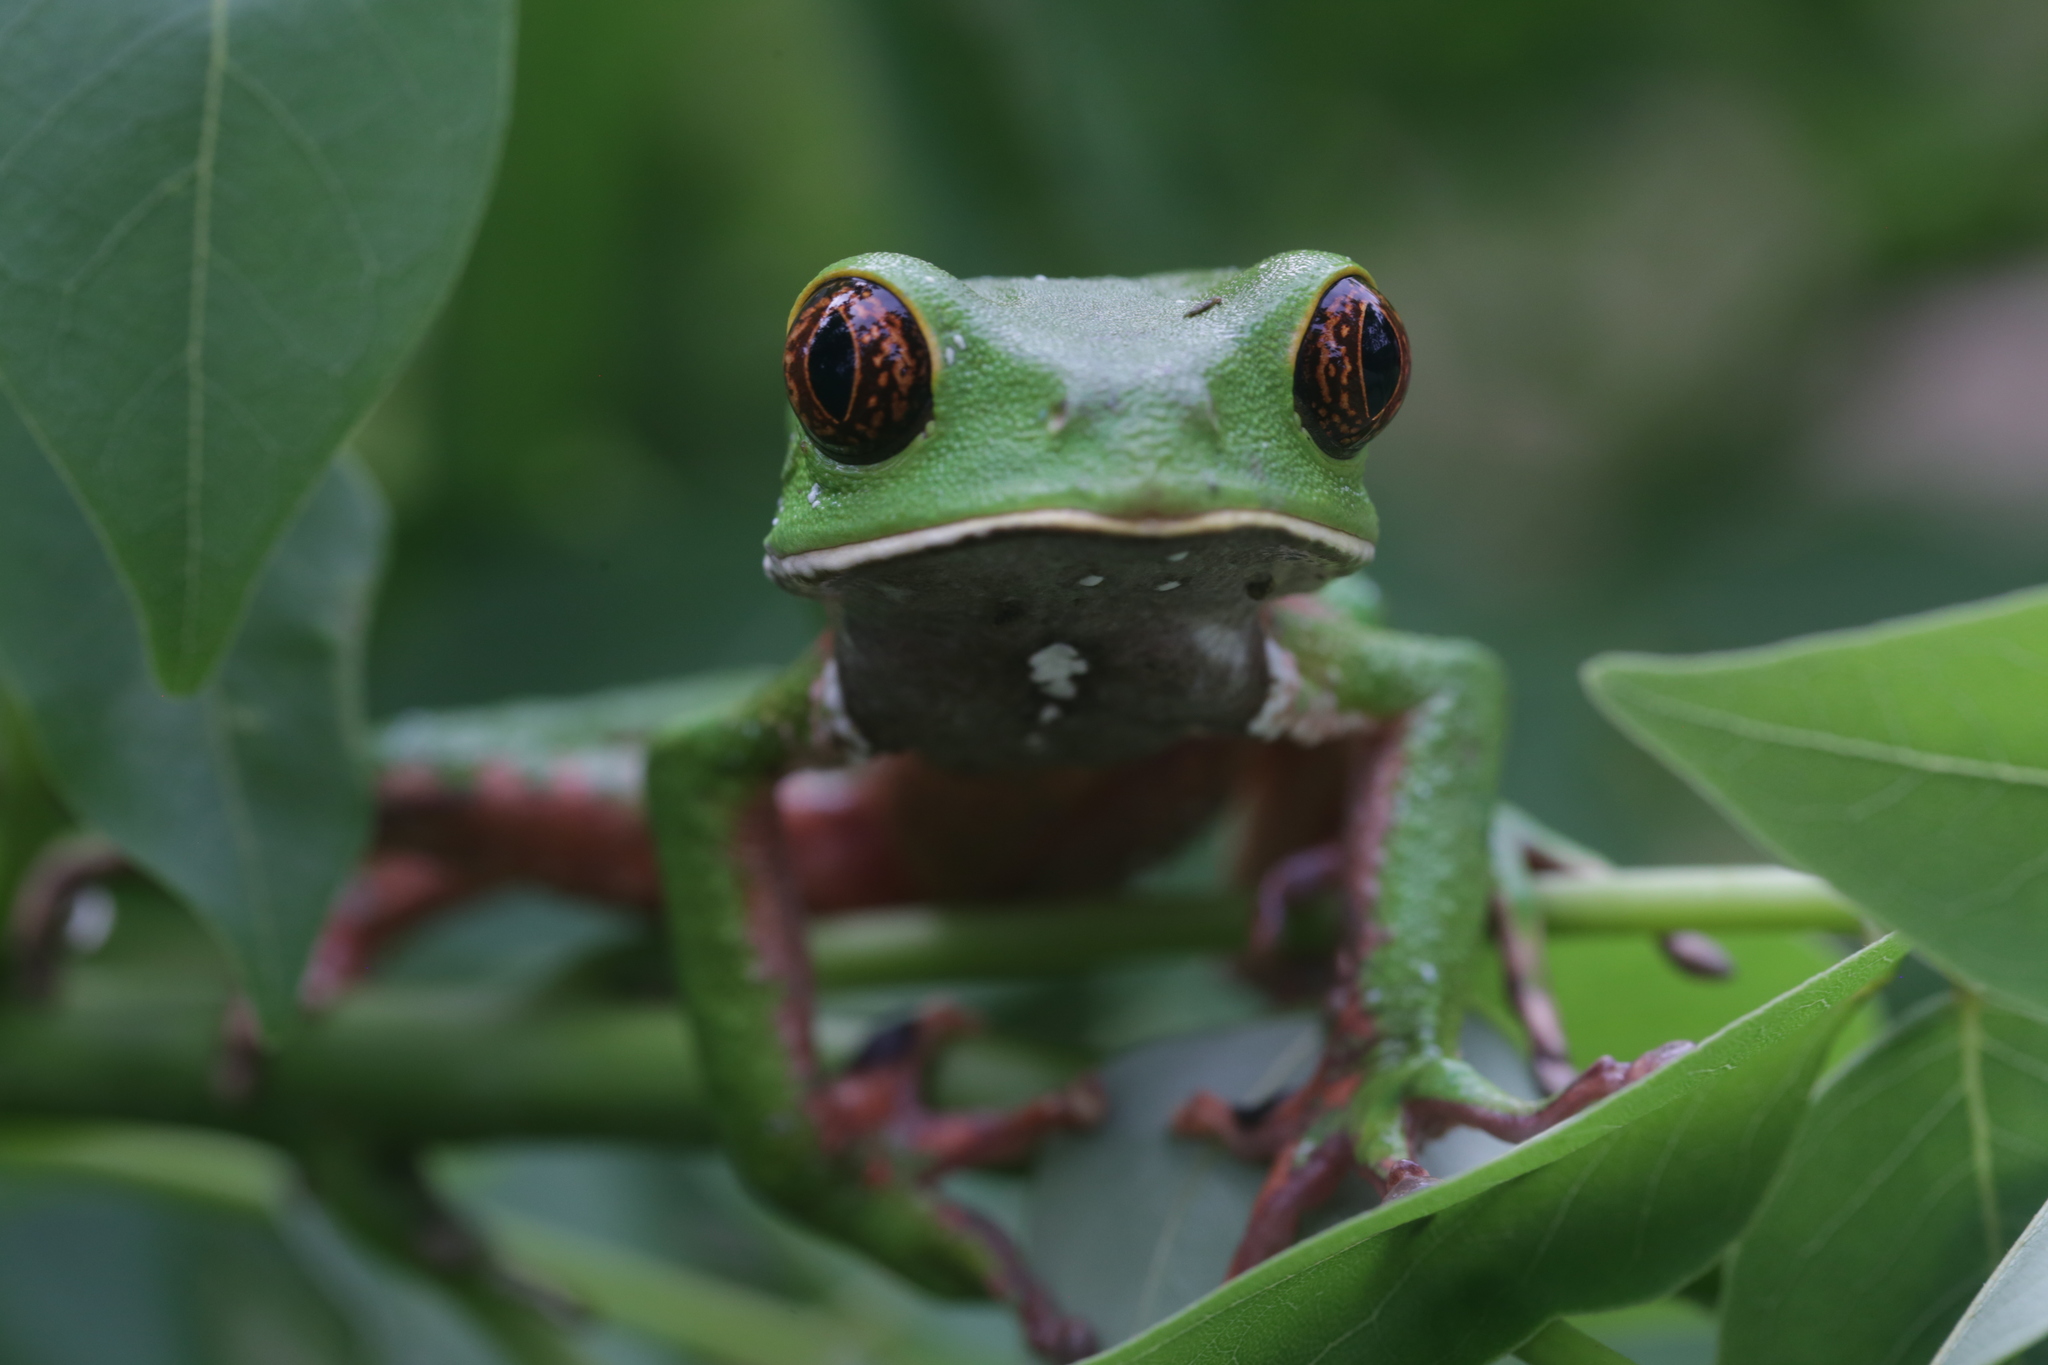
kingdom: Animalia
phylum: Chordata
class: Amphibia
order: Anura
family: Phyllomedusidae
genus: Phyllomedusa
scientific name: Phyllomedusa venusta
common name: Lovely leaf frog
